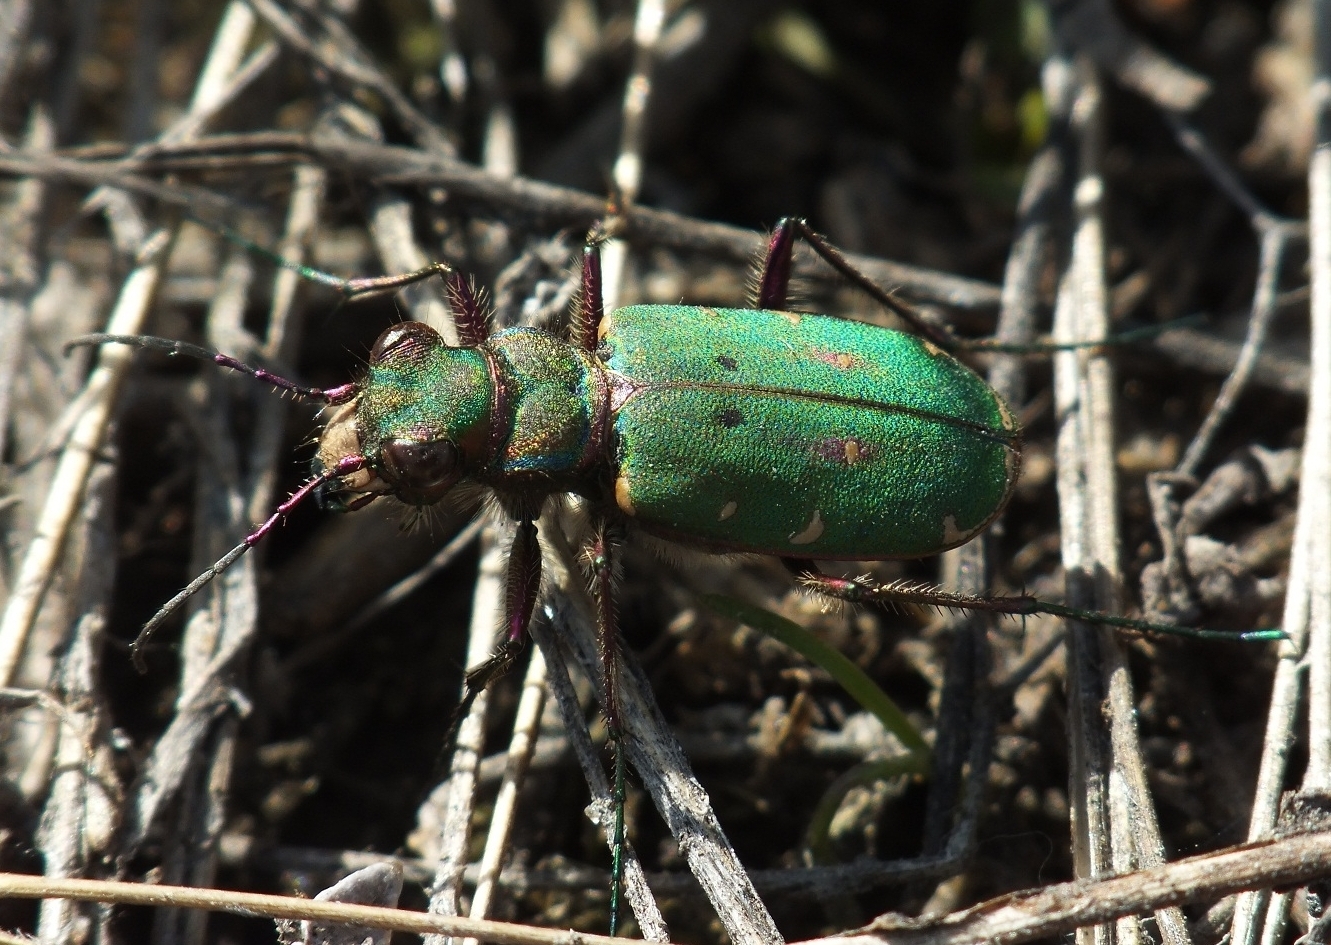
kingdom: Animalia
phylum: Arthropoda
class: Insecta
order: Coleoptera
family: Carabidae
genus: Cicindela
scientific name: Cicindela campestris
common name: Common tiger beetle
